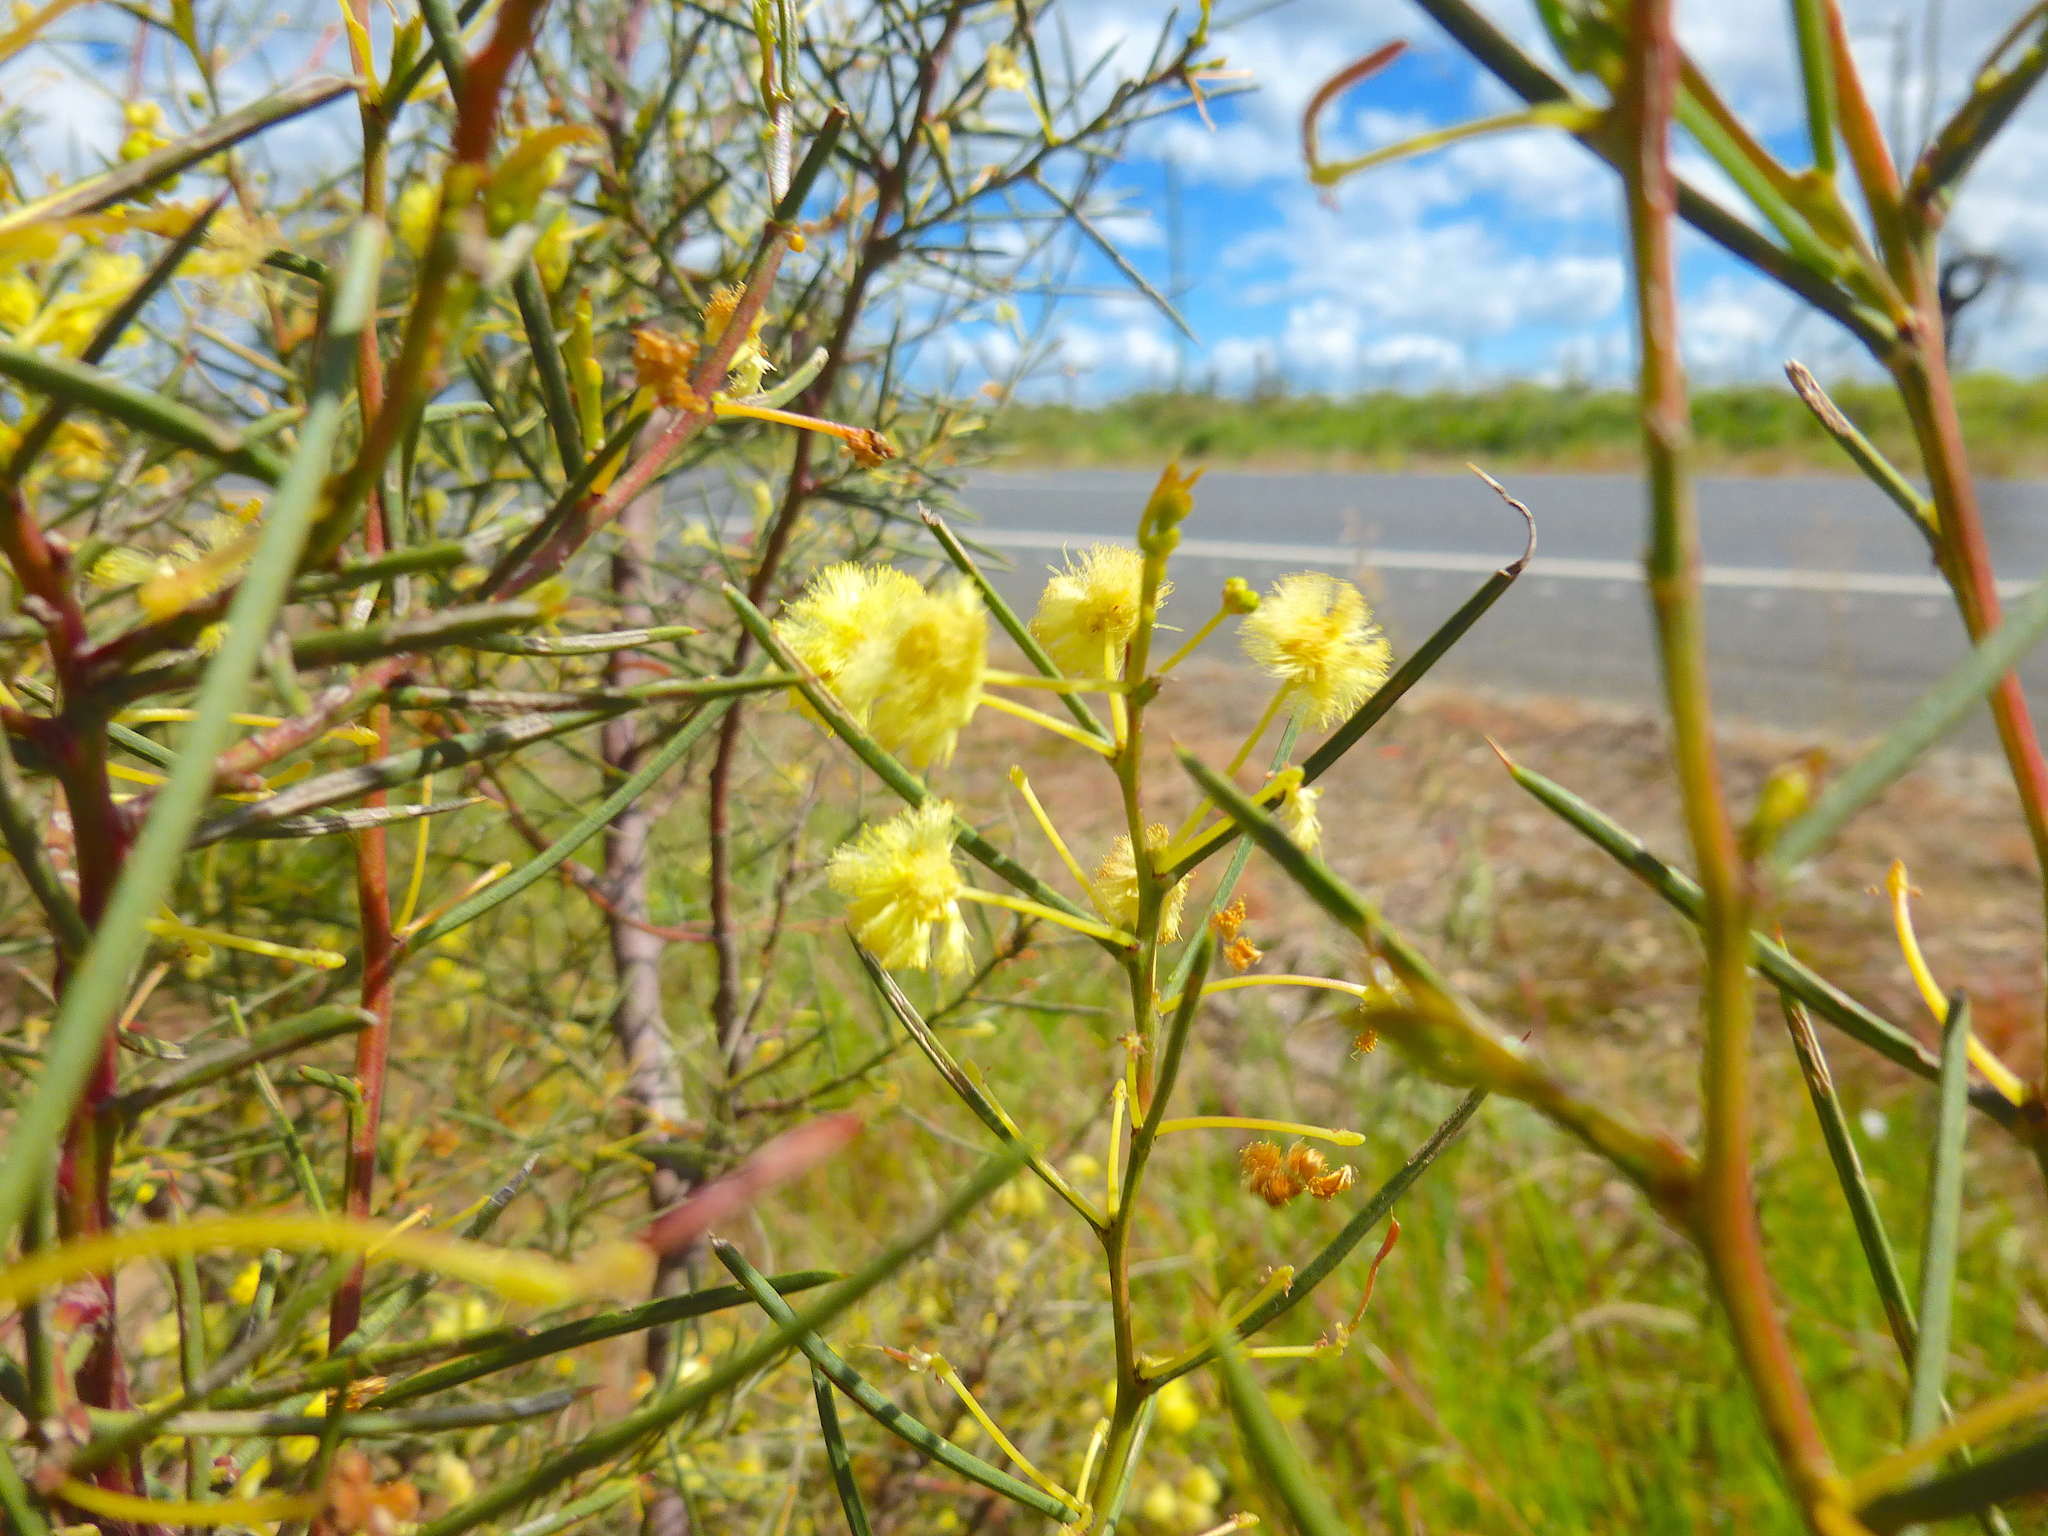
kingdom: Plantae
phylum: Tracheophyta
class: Magnoliopsida
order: Fabales
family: Fabaceae
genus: Acacia
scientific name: Acacia genistifolia
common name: Early wattle
